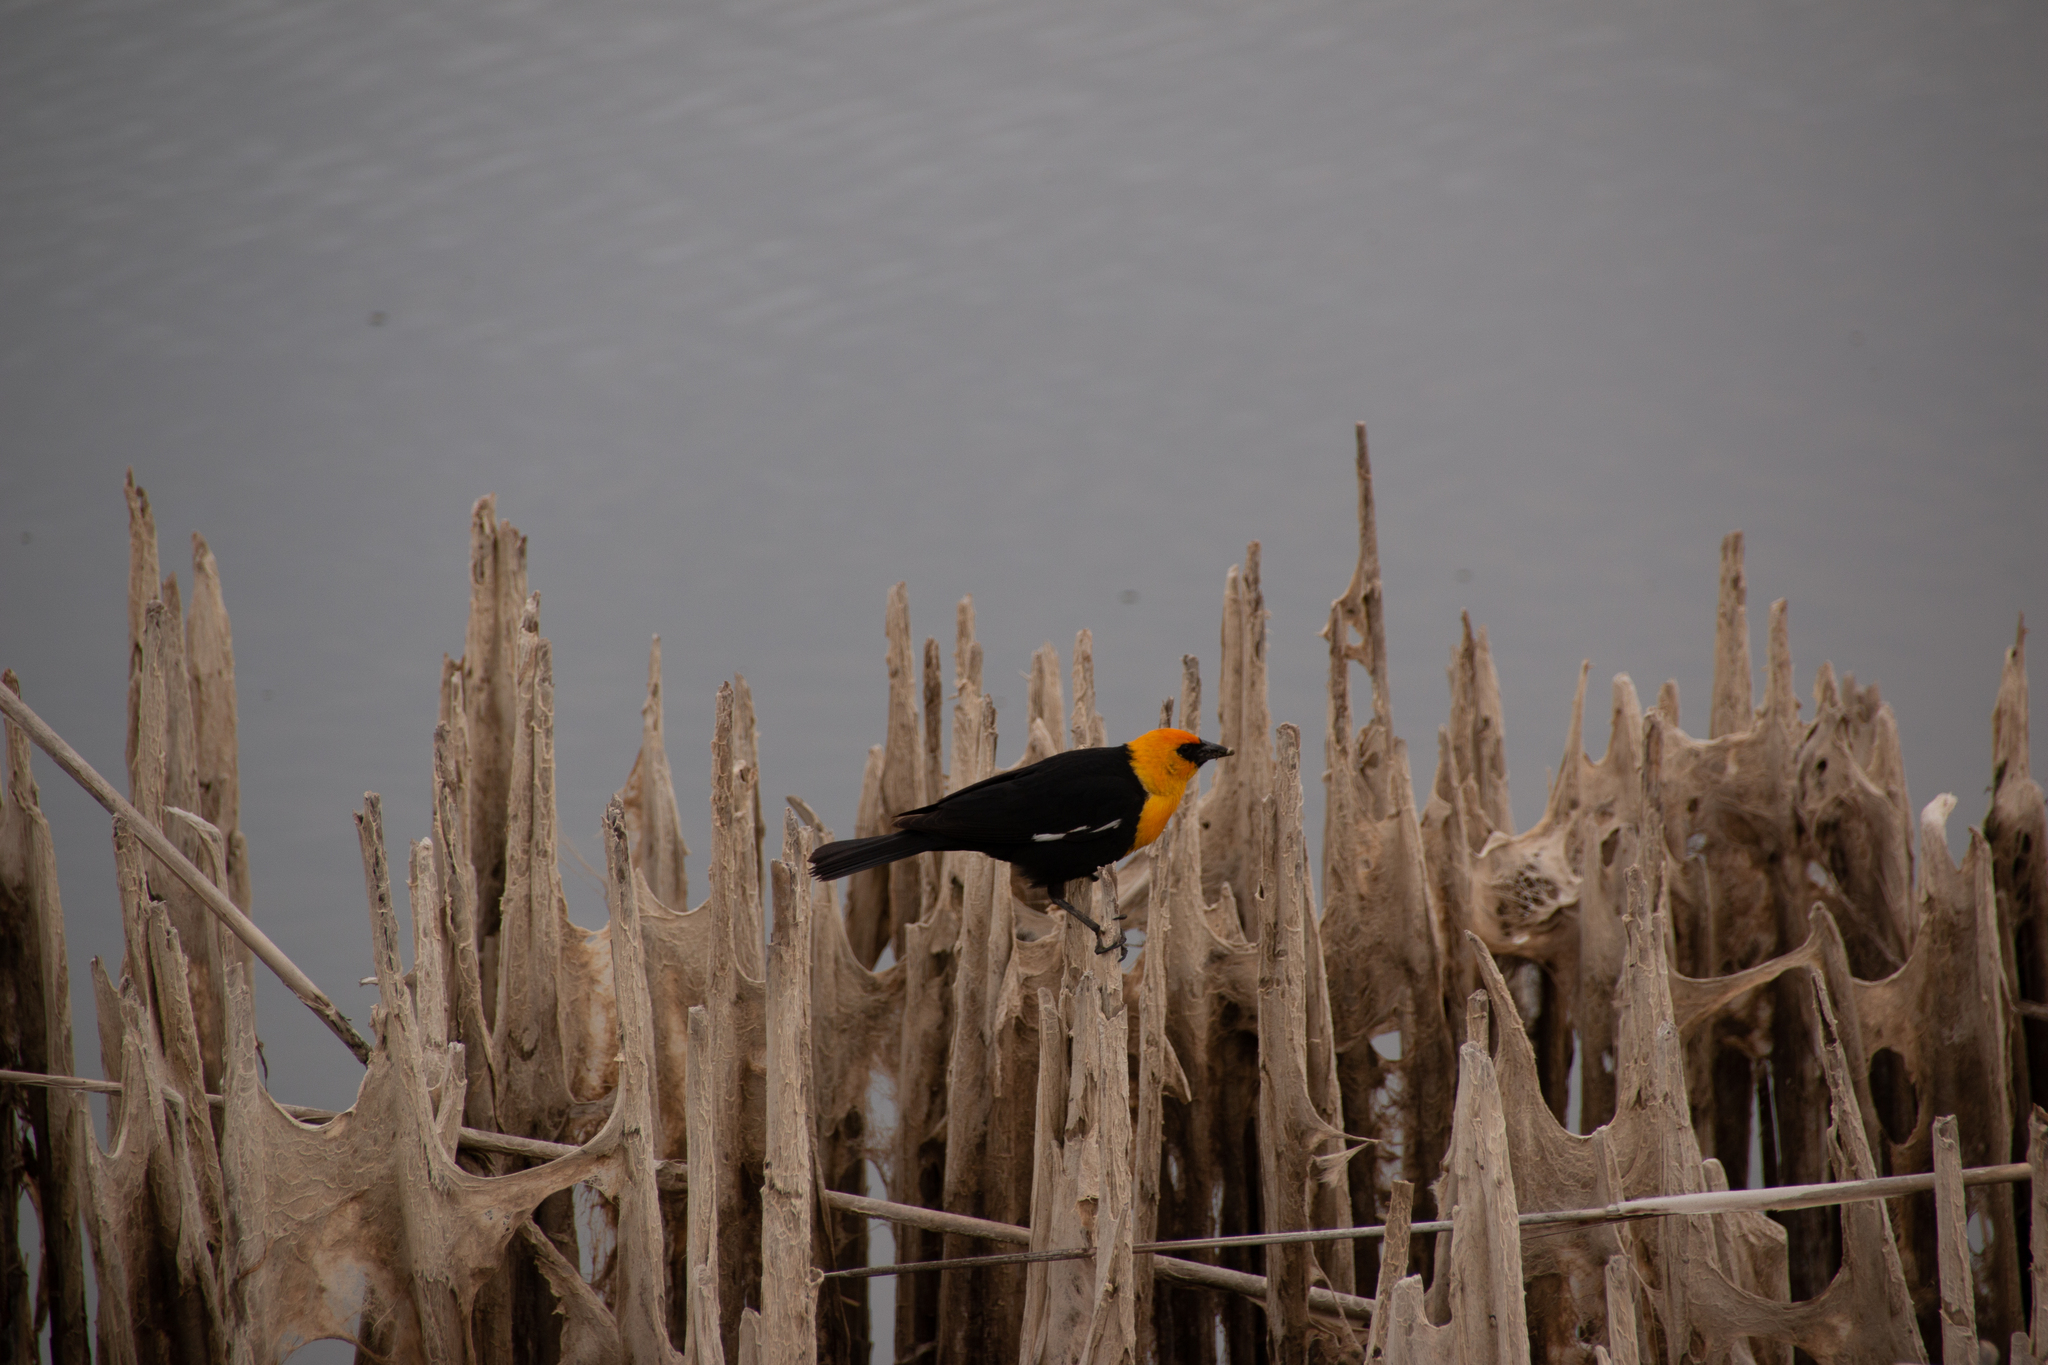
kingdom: Animalia
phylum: Chordata
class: Aves
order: Passeriformes
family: Icteridae
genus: Xanthocephalus
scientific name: Xanthocephalus xanthocephalus
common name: Yellow-headed blackbird
